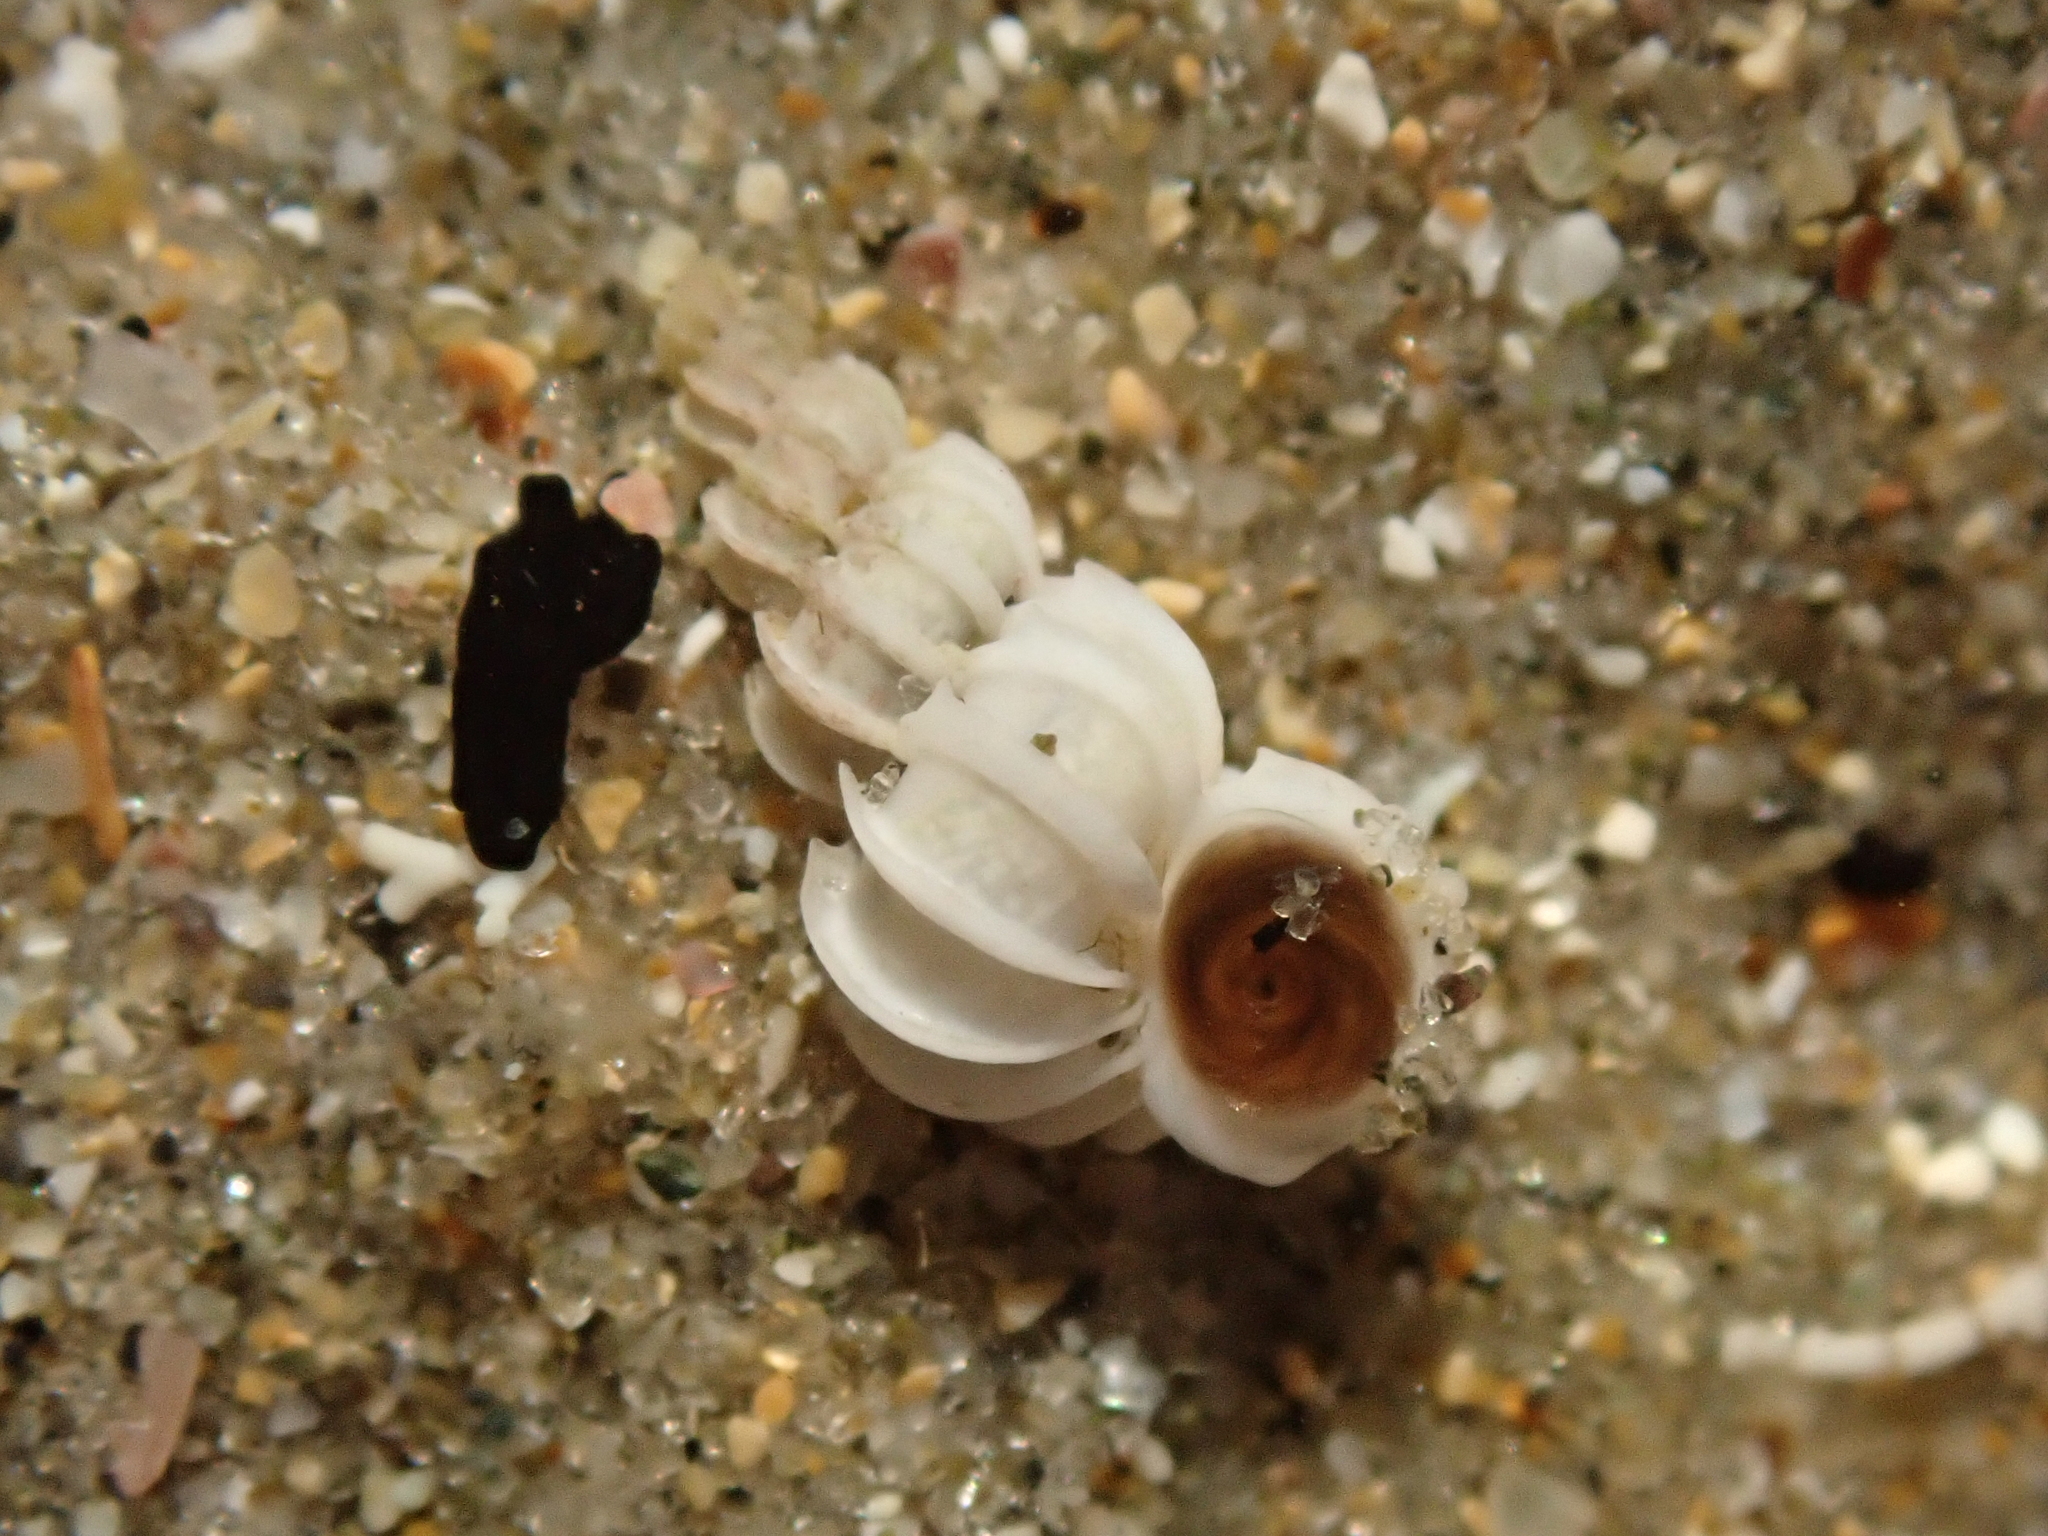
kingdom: Animalia
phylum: Mollusca
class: Gastropoda
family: Epitoniidae
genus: Epitonium
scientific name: Epitonium minorum
